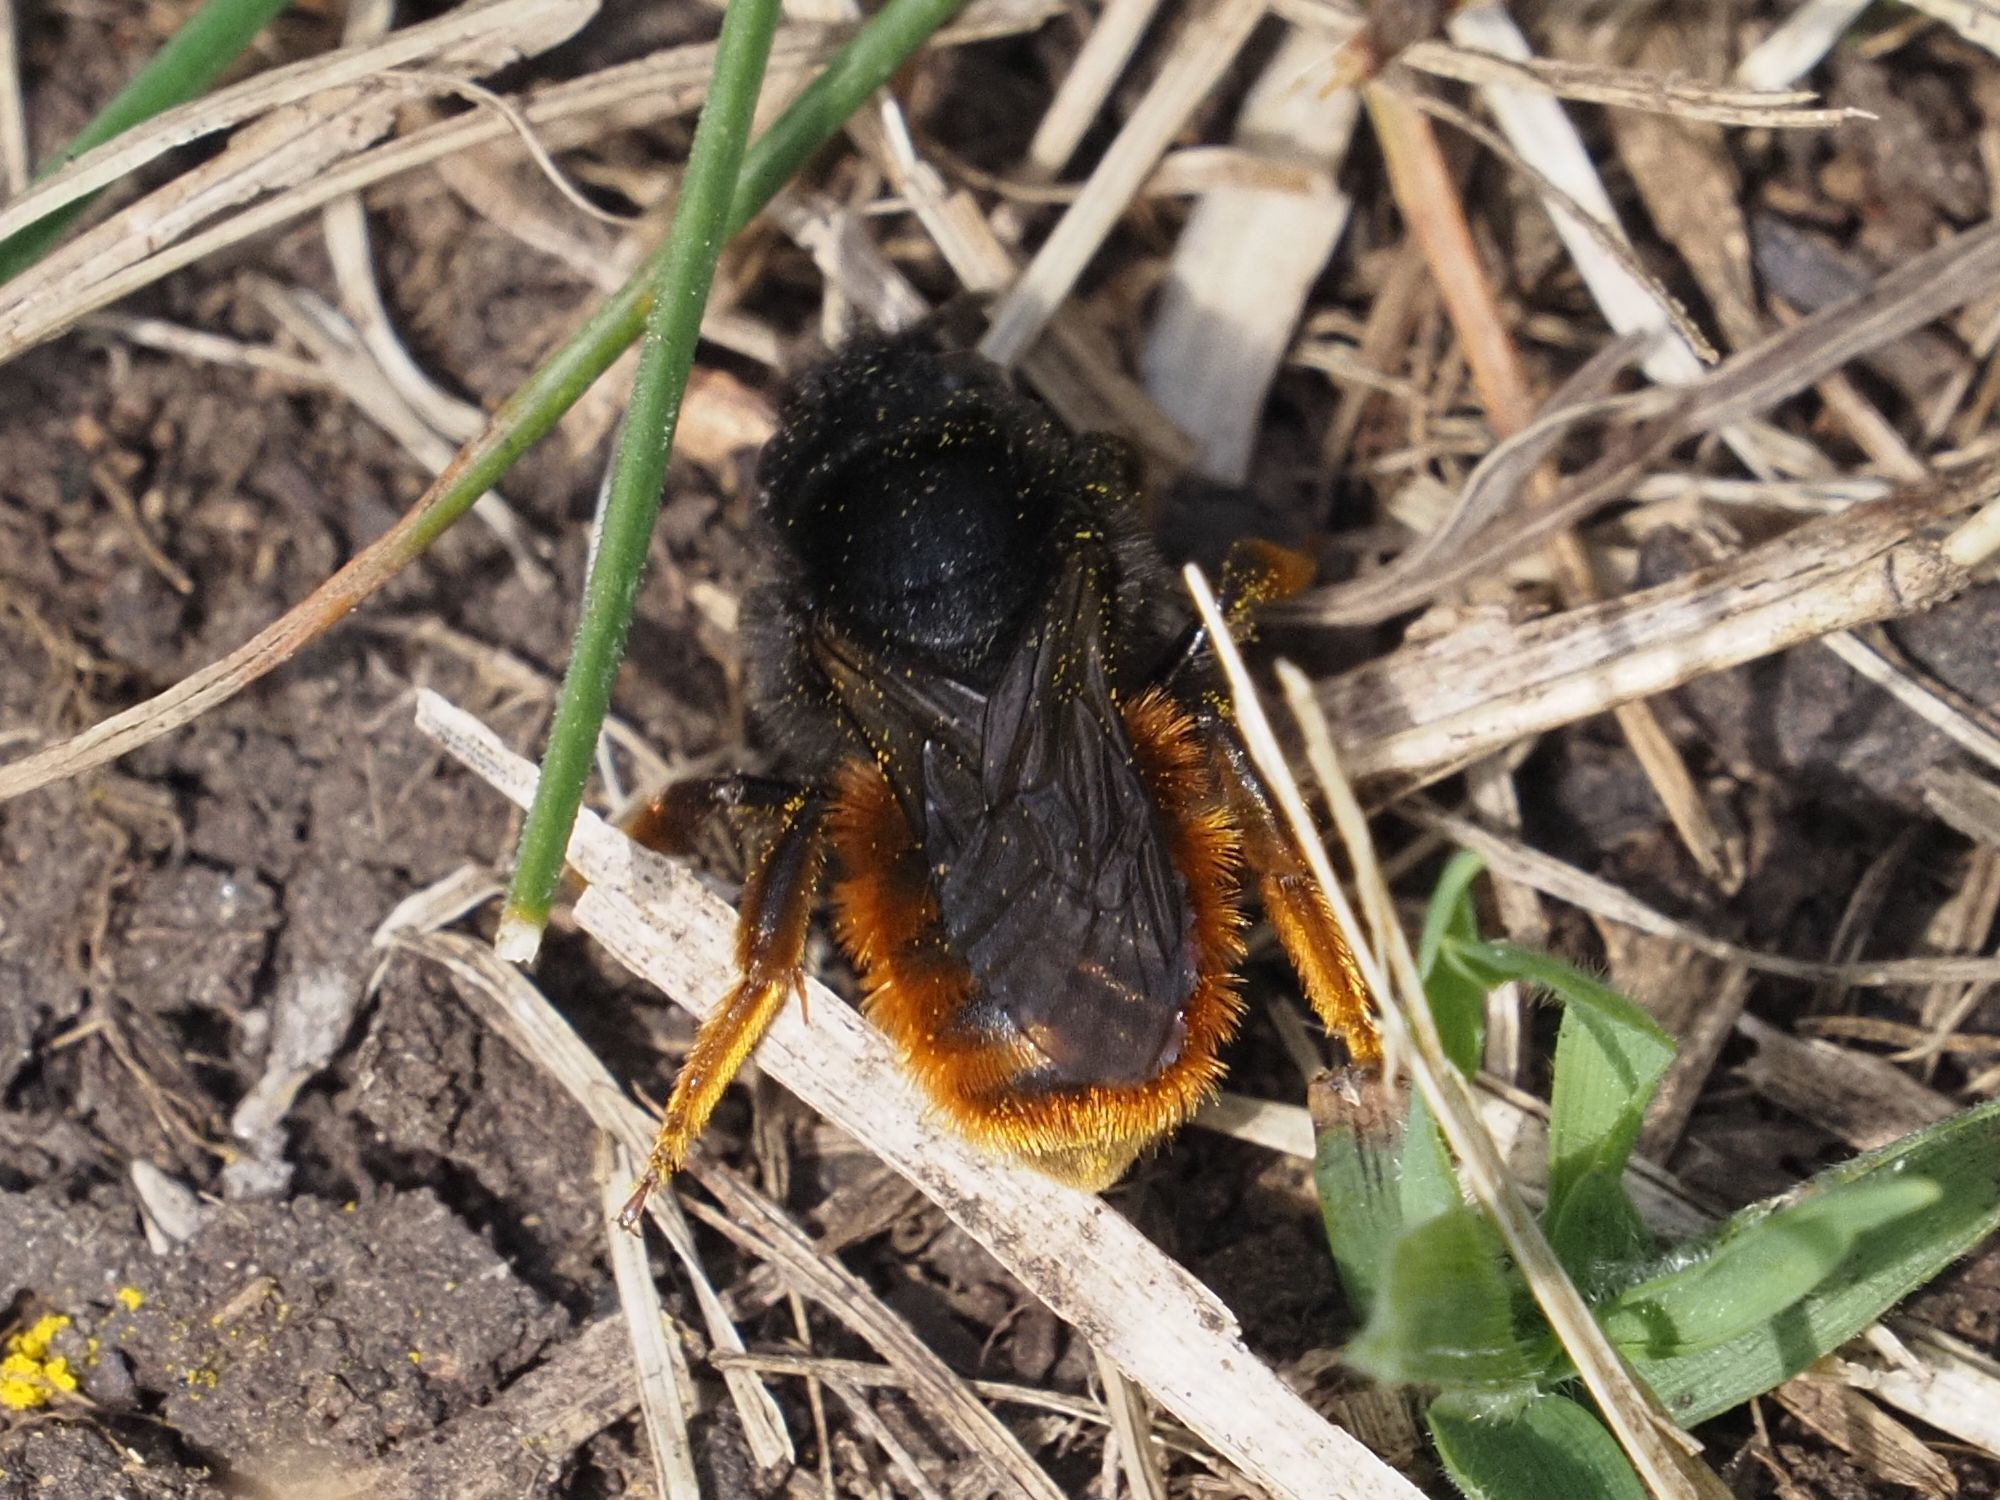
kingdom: Animalia
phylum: Arthropoda
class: Insecta
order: Hymenoptera
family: Megachilidae
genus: Osmia
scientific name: Osmia bicolor
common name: Red-tailed mason bee
